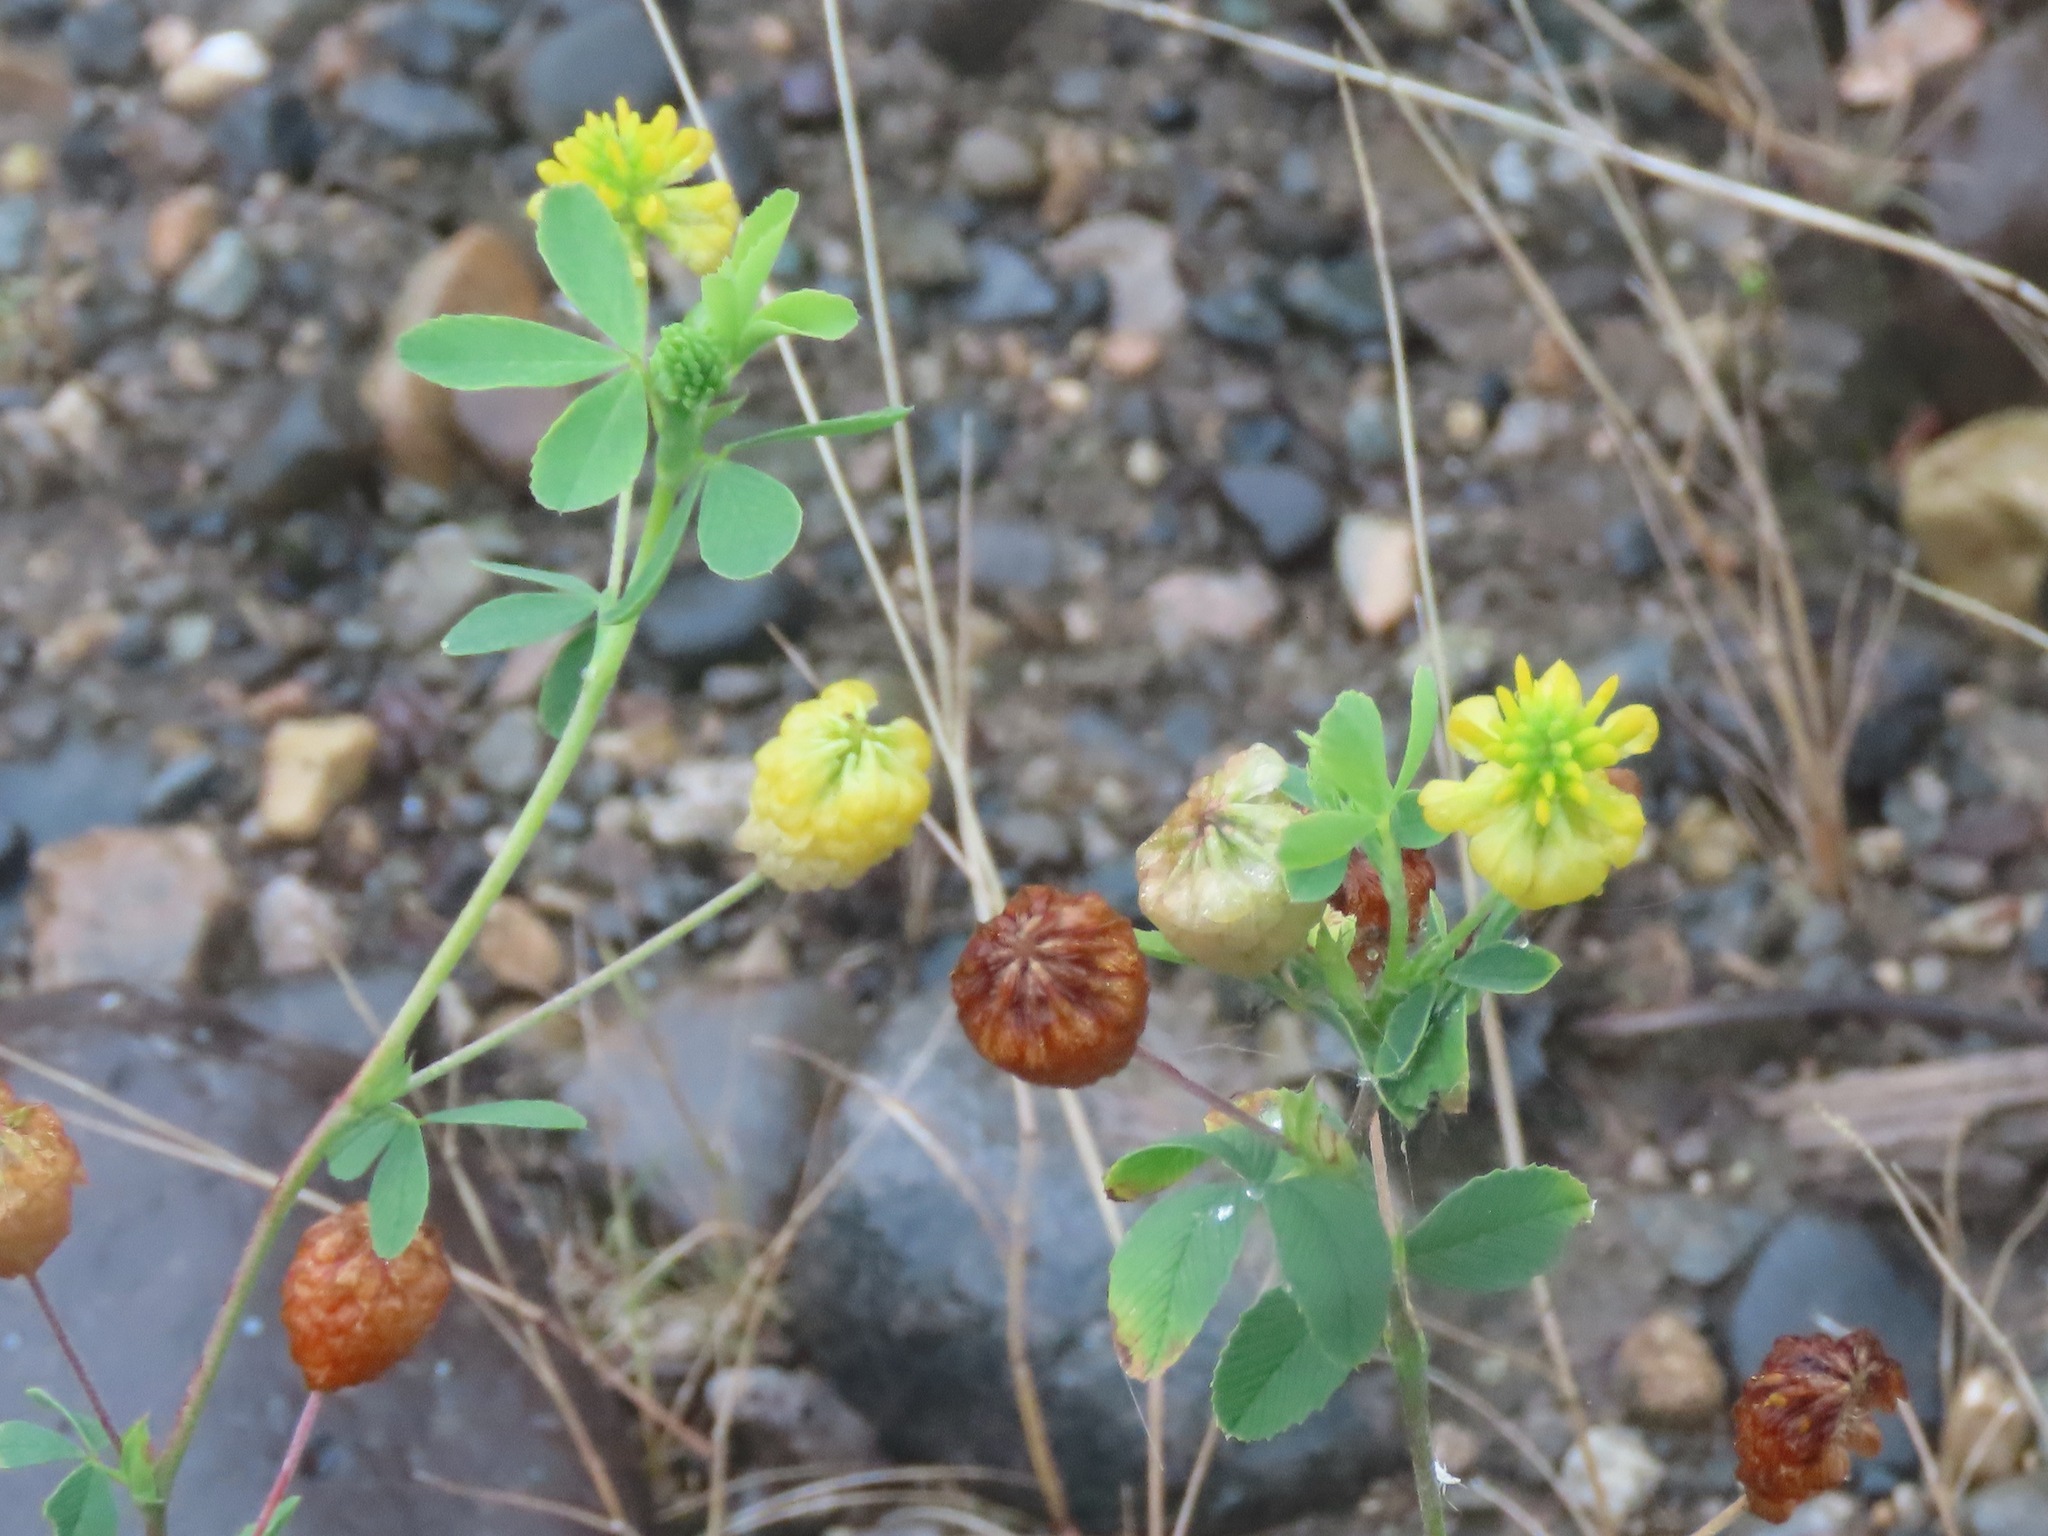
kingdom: Plantae
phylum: Tracheophyta
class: Magnoliopsida
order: Fabales
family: Fabaceae
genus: Trifolium
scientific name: Trifolium aureum
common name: Golden clover
